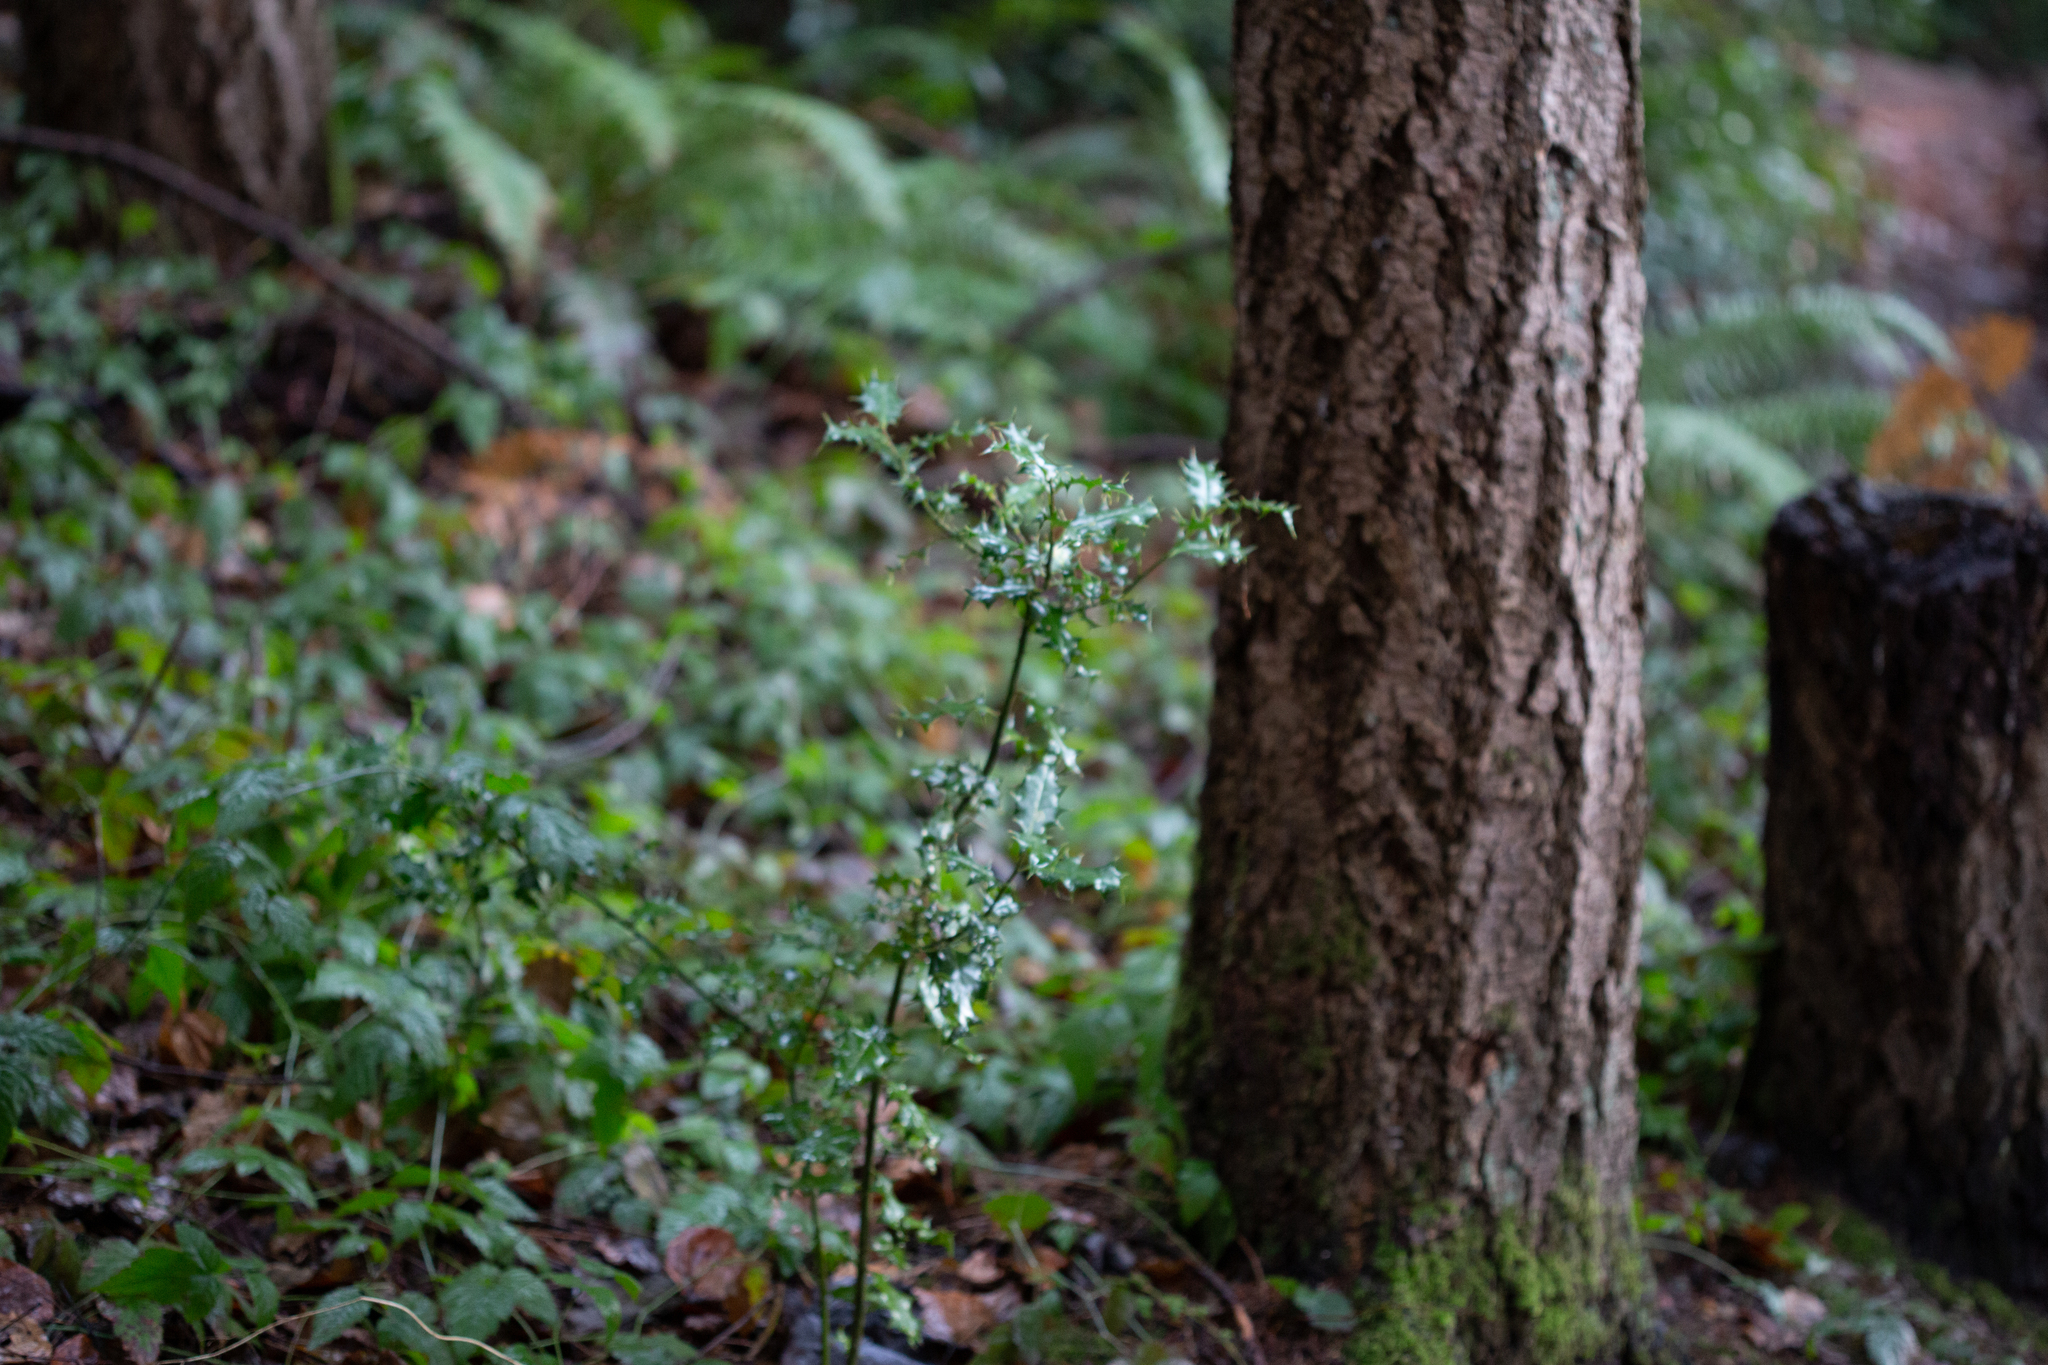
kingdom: Plantae
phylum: Tracheophyta
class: Magnoliopsida
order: Aquifoliales
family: Aquifoliaceae
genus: Ilex
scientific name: Ilex aquifolium
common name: English holly
